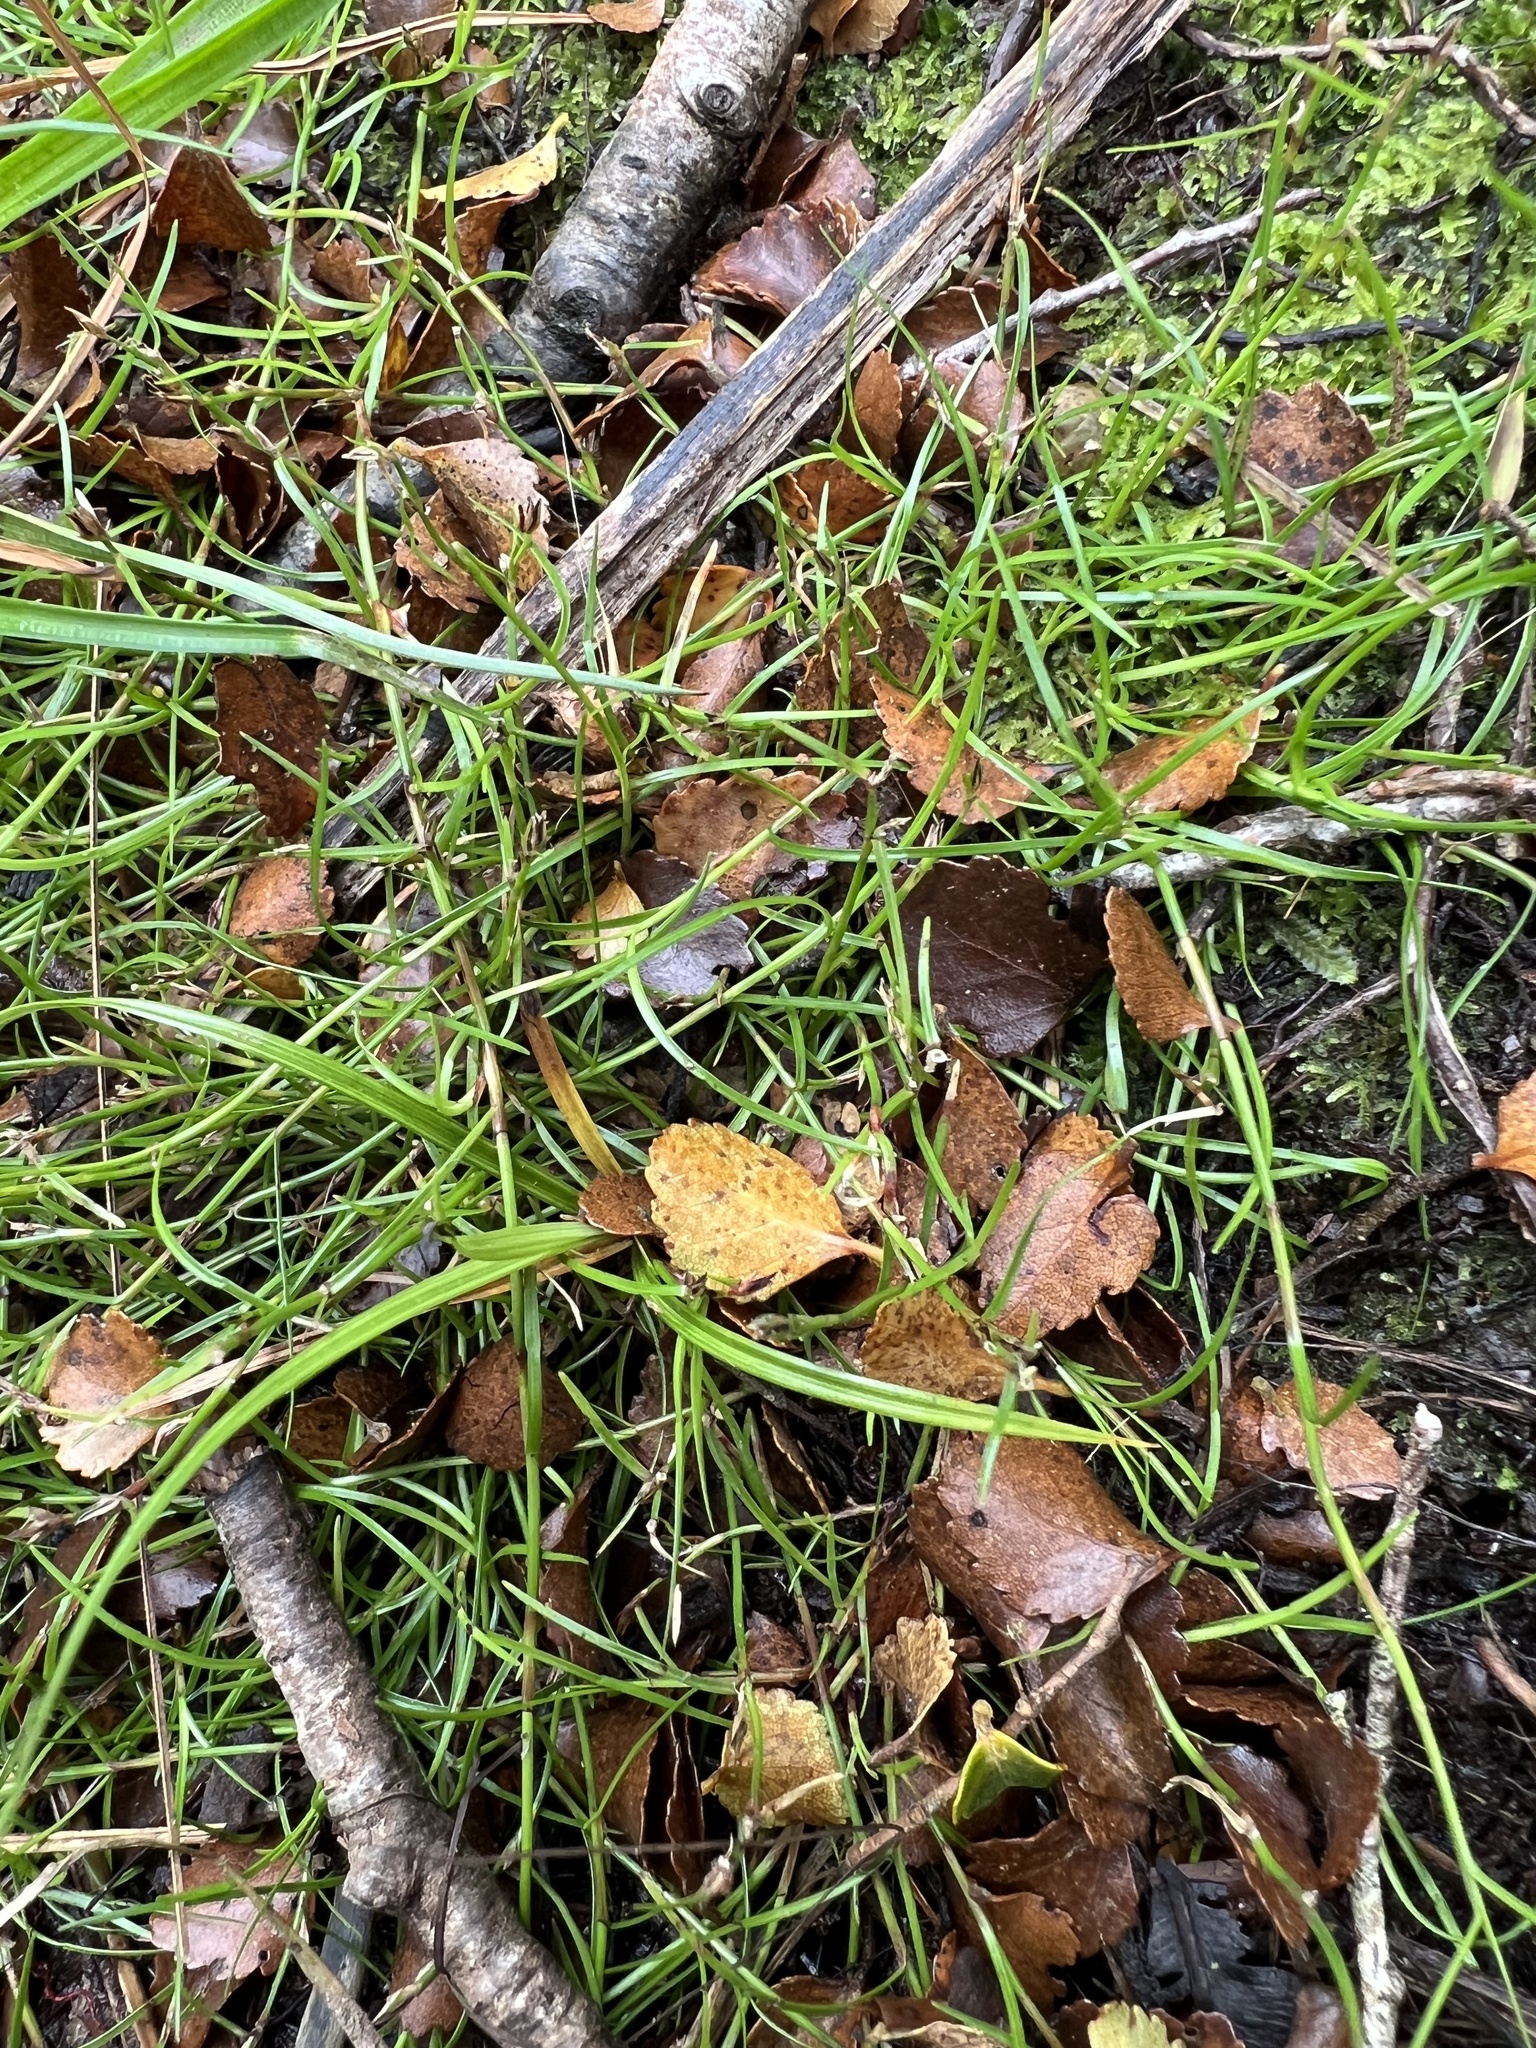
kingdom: Plantae
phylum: Tracheophyta
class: Liliopsida
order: Poales
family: Cyperaceae
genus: Schoenus
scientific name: Schoenus maschalinus
